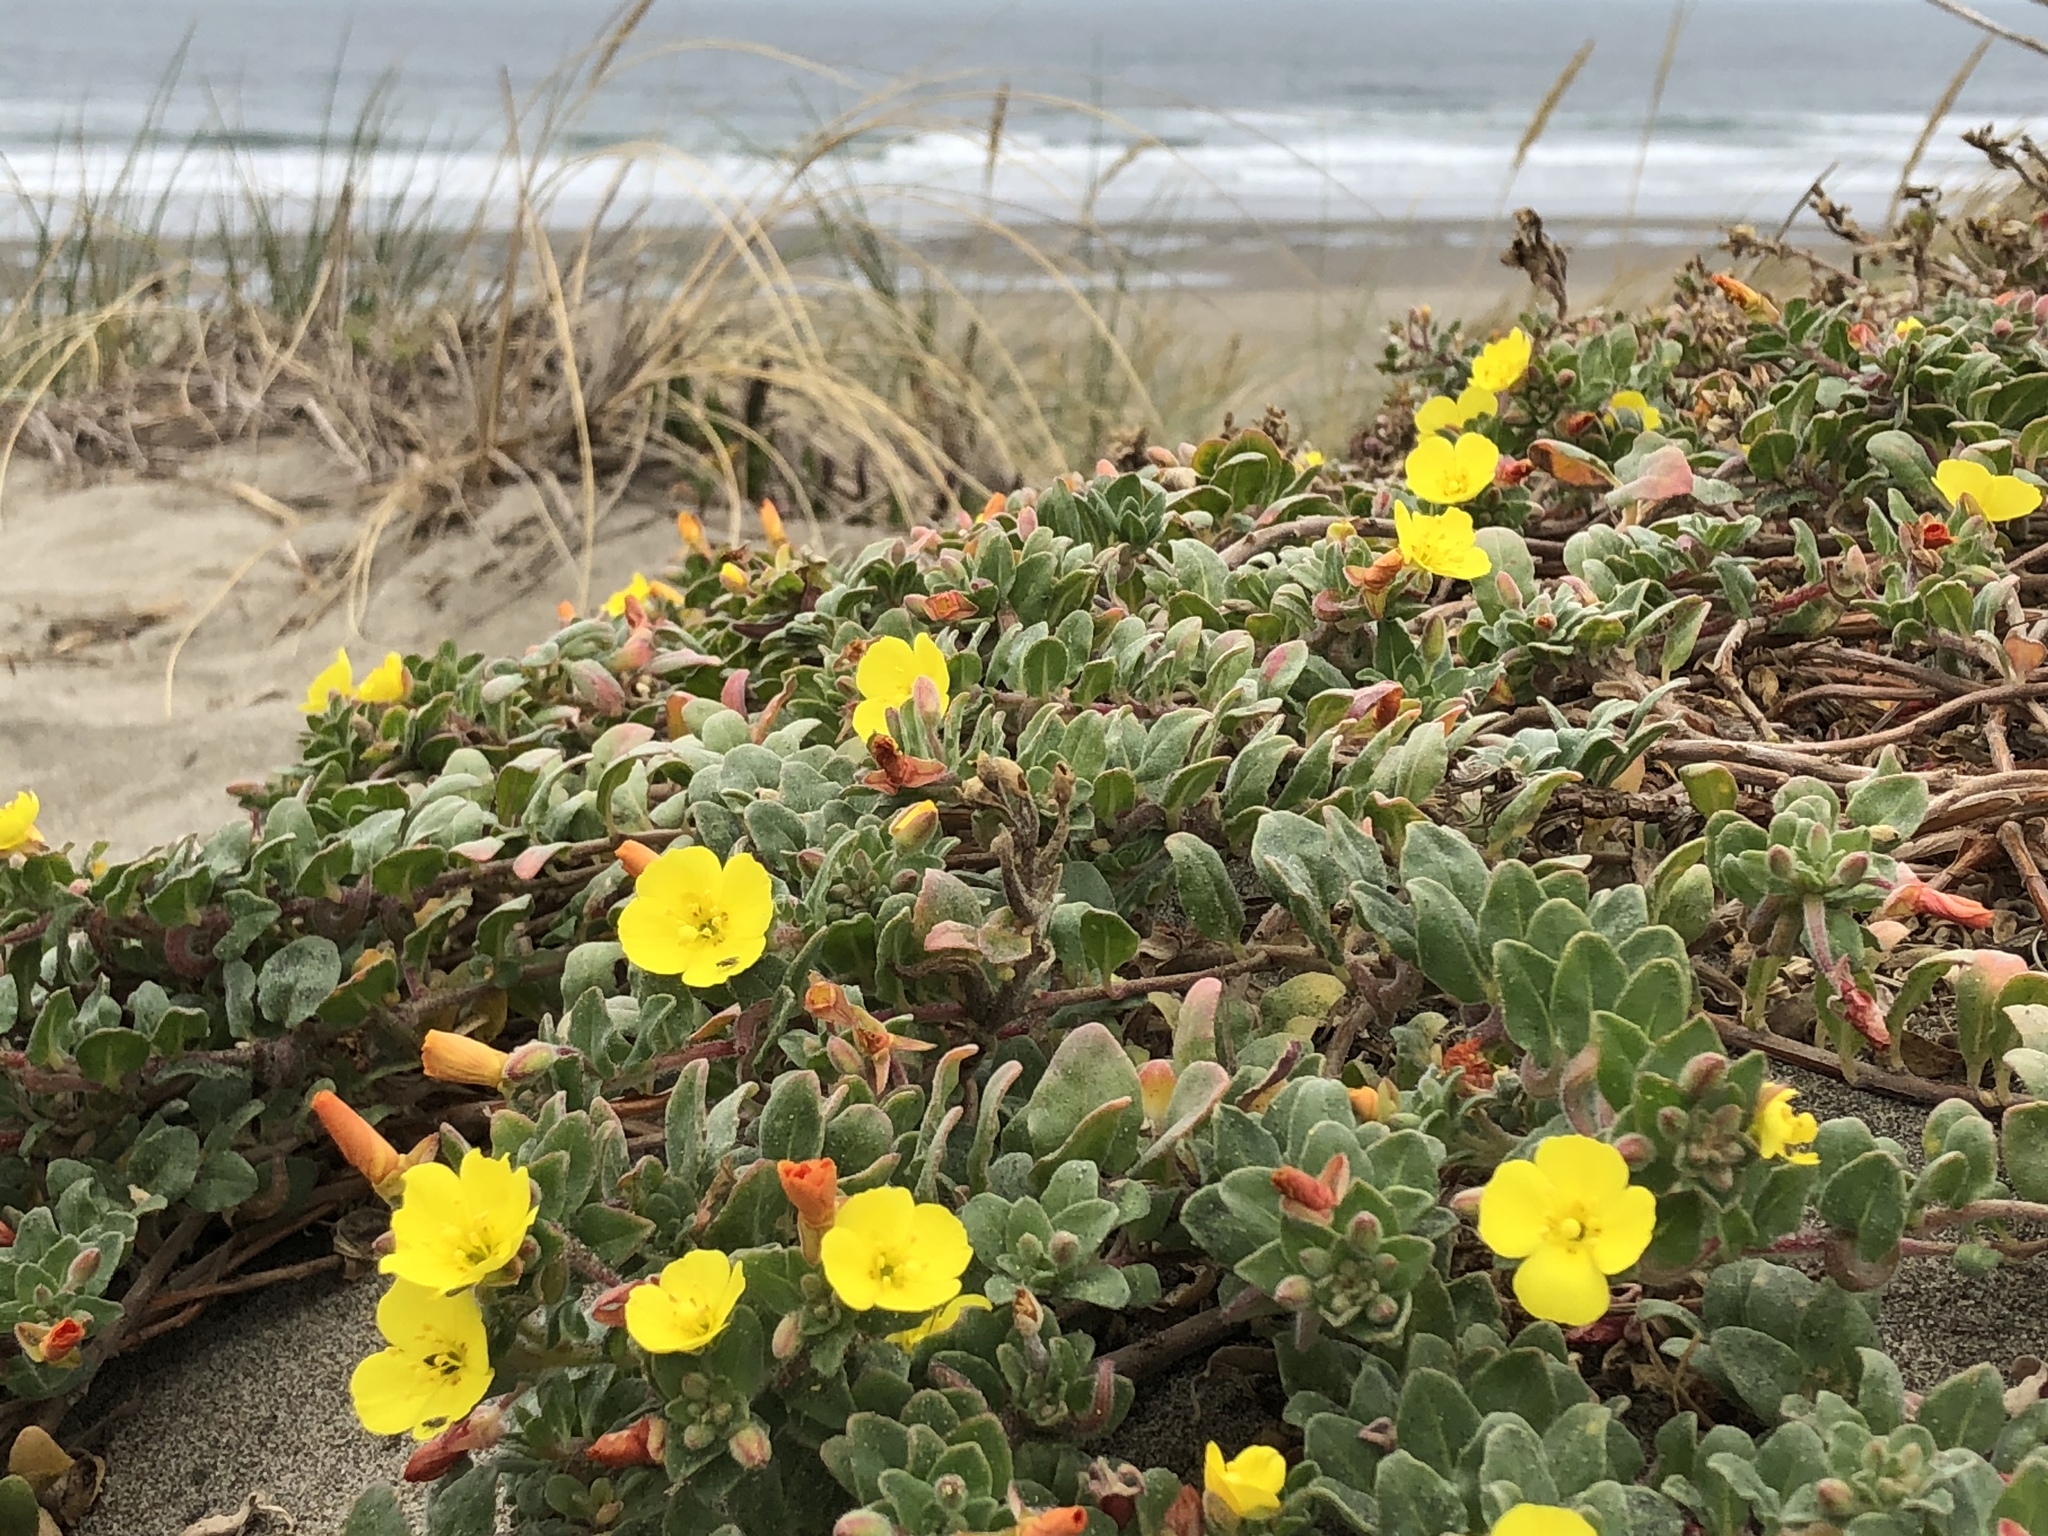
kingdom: Plantae
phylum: Tracheophyta
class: Magnoliopsida
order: Myrtales
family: Onagraceae
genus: Camissoniopsis
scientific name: Camissoniopsis cheiranthifolia
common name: Beach suncup
